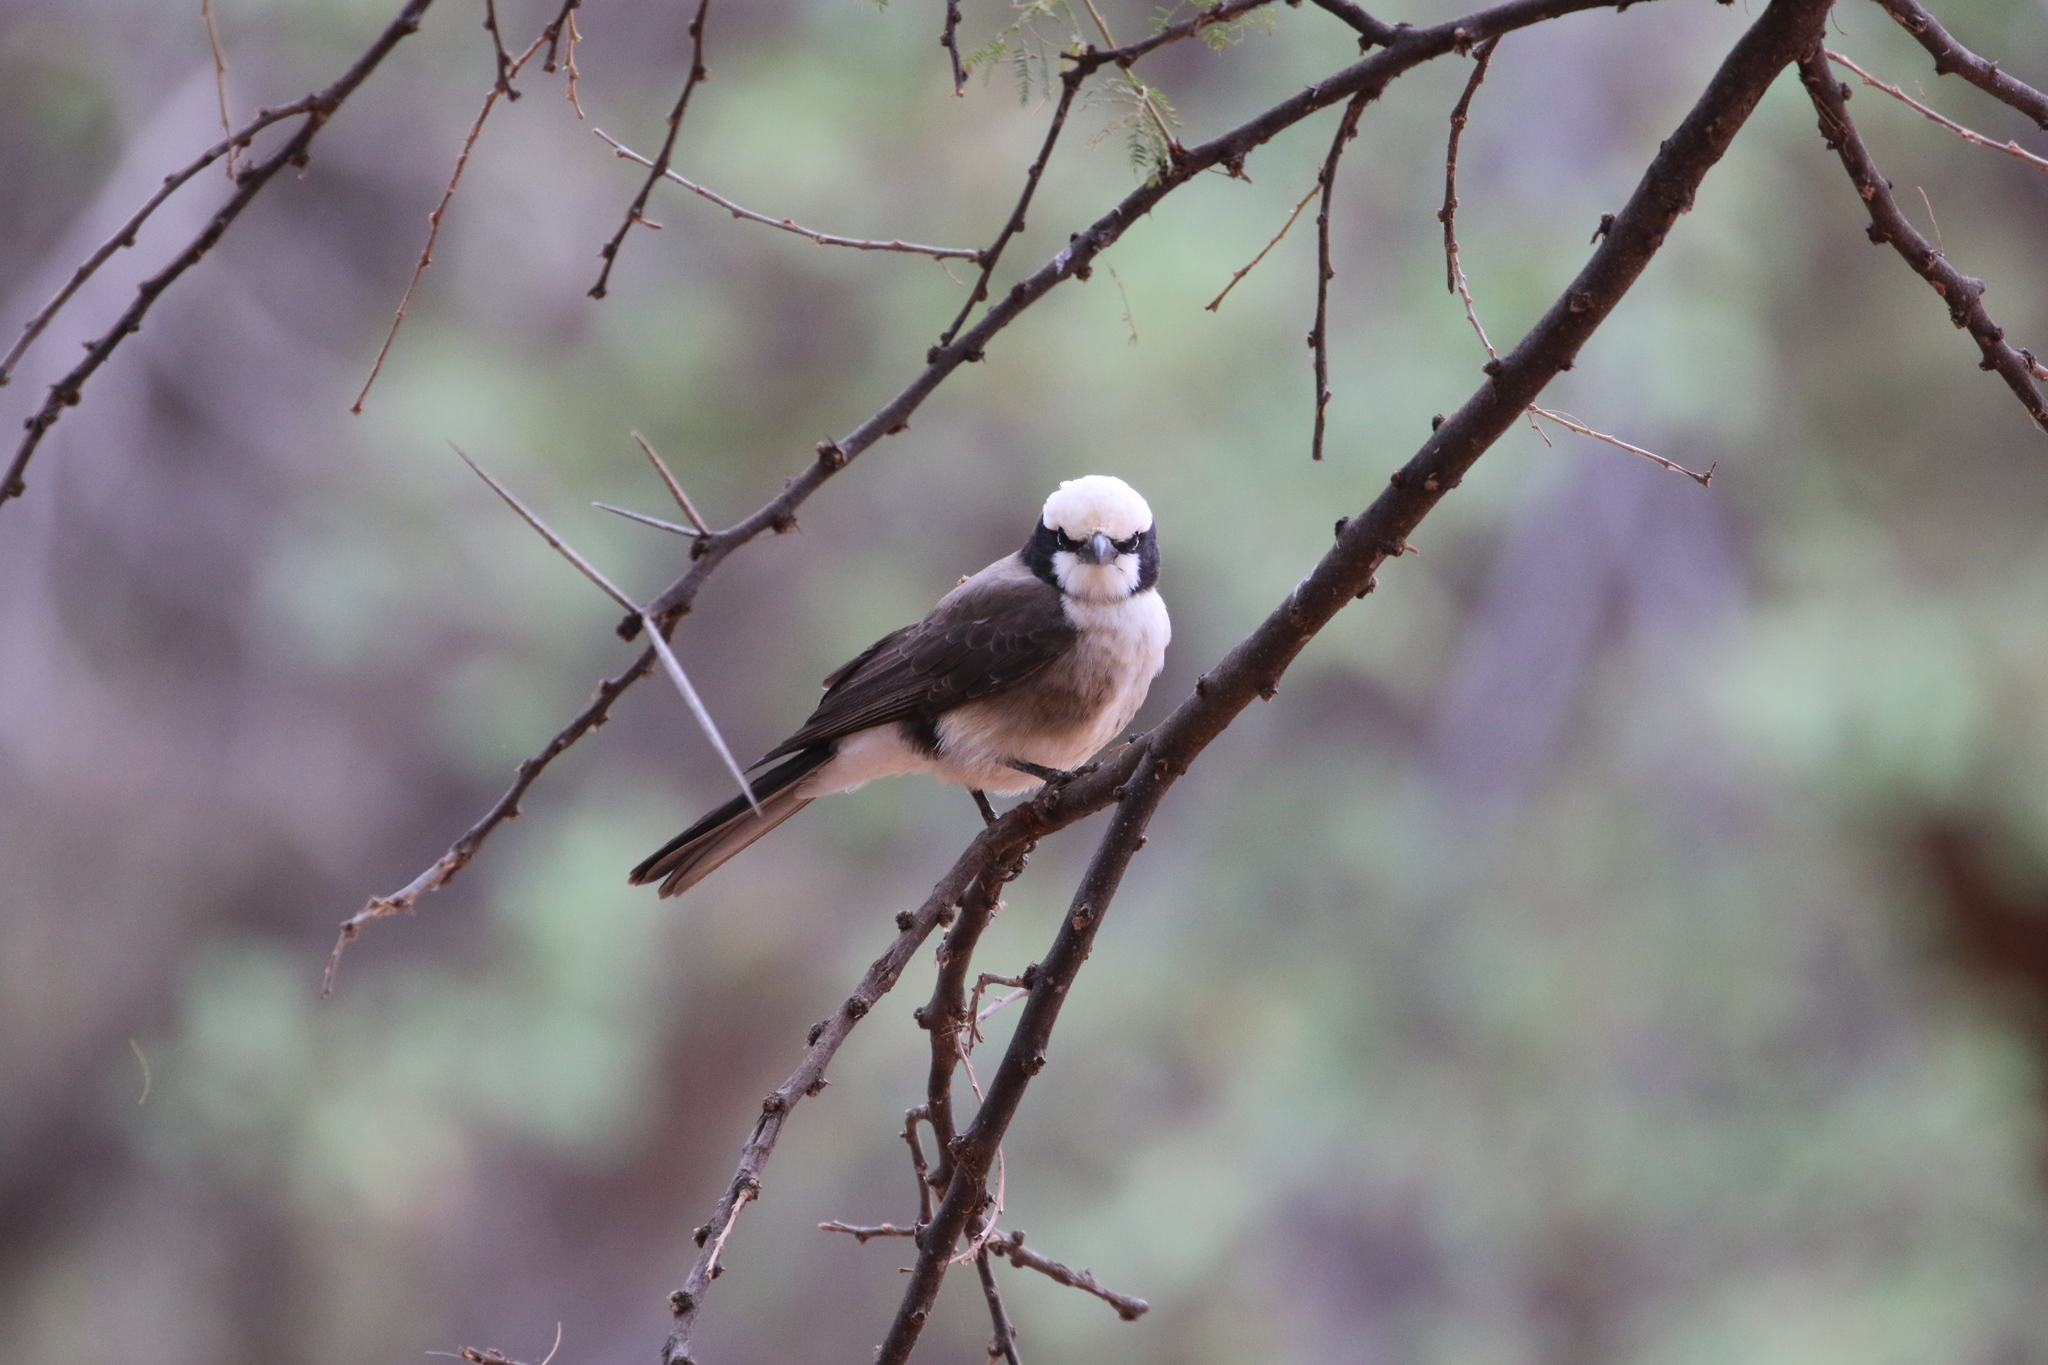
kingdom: Animalia
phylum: Chordata
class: Aves
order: Passeriformes
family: Laniidae
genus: Eurocephalus
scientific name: Eurocephalus ruppelli
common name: Northern white-crowned shrike
